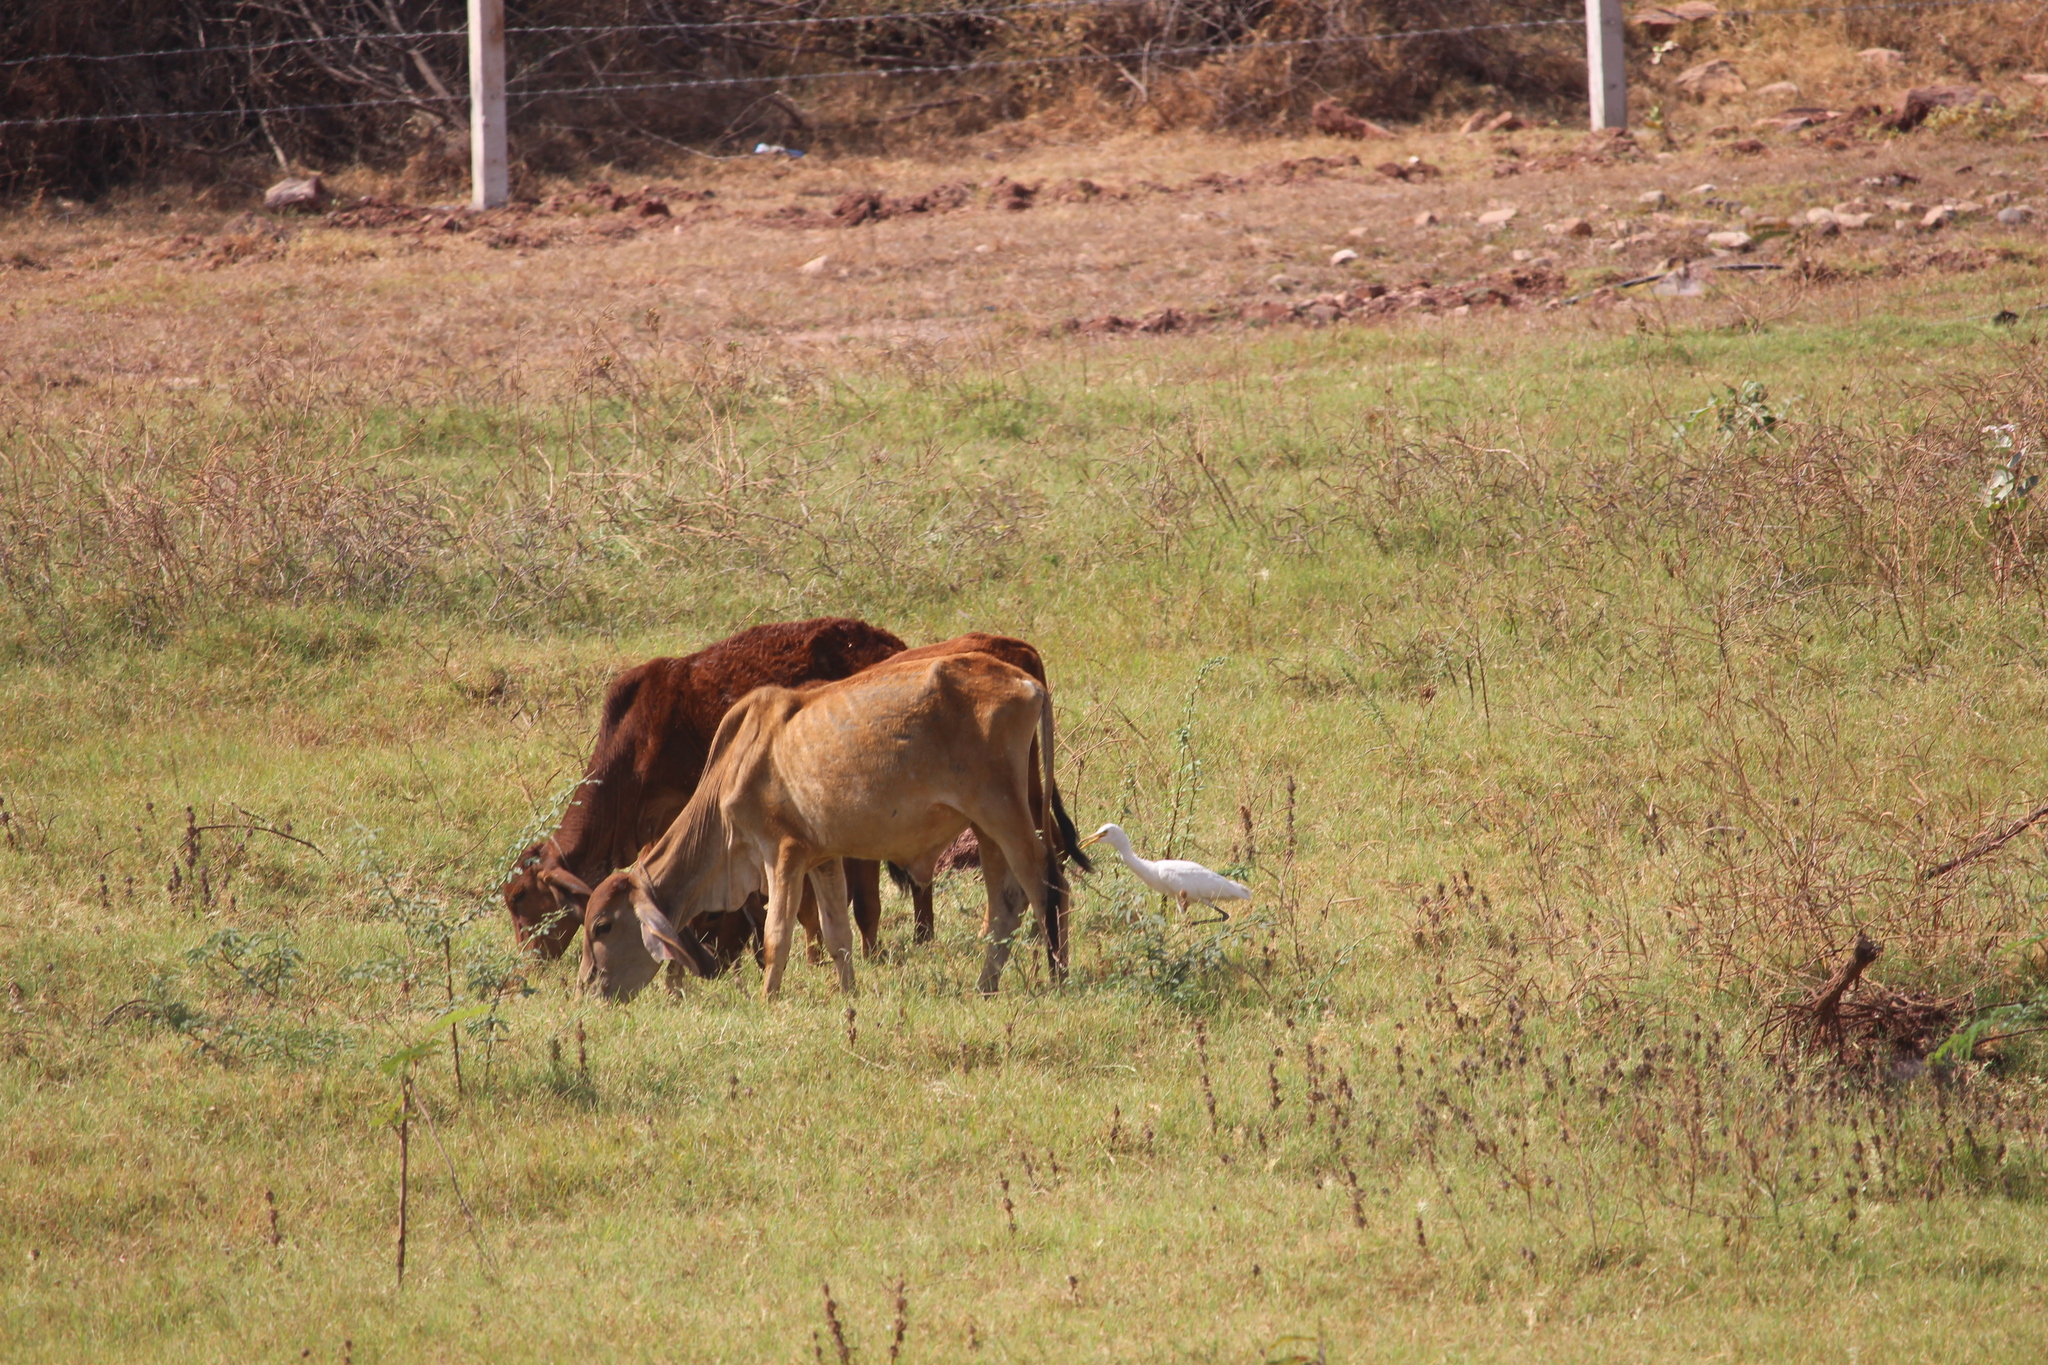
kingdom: Animalia
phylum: Chordata
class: Aves
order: Pelecaniformes
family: Ardeidae
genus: Bubulcus
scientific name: Bubulcus coromandus
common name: Eastern cattle egret
